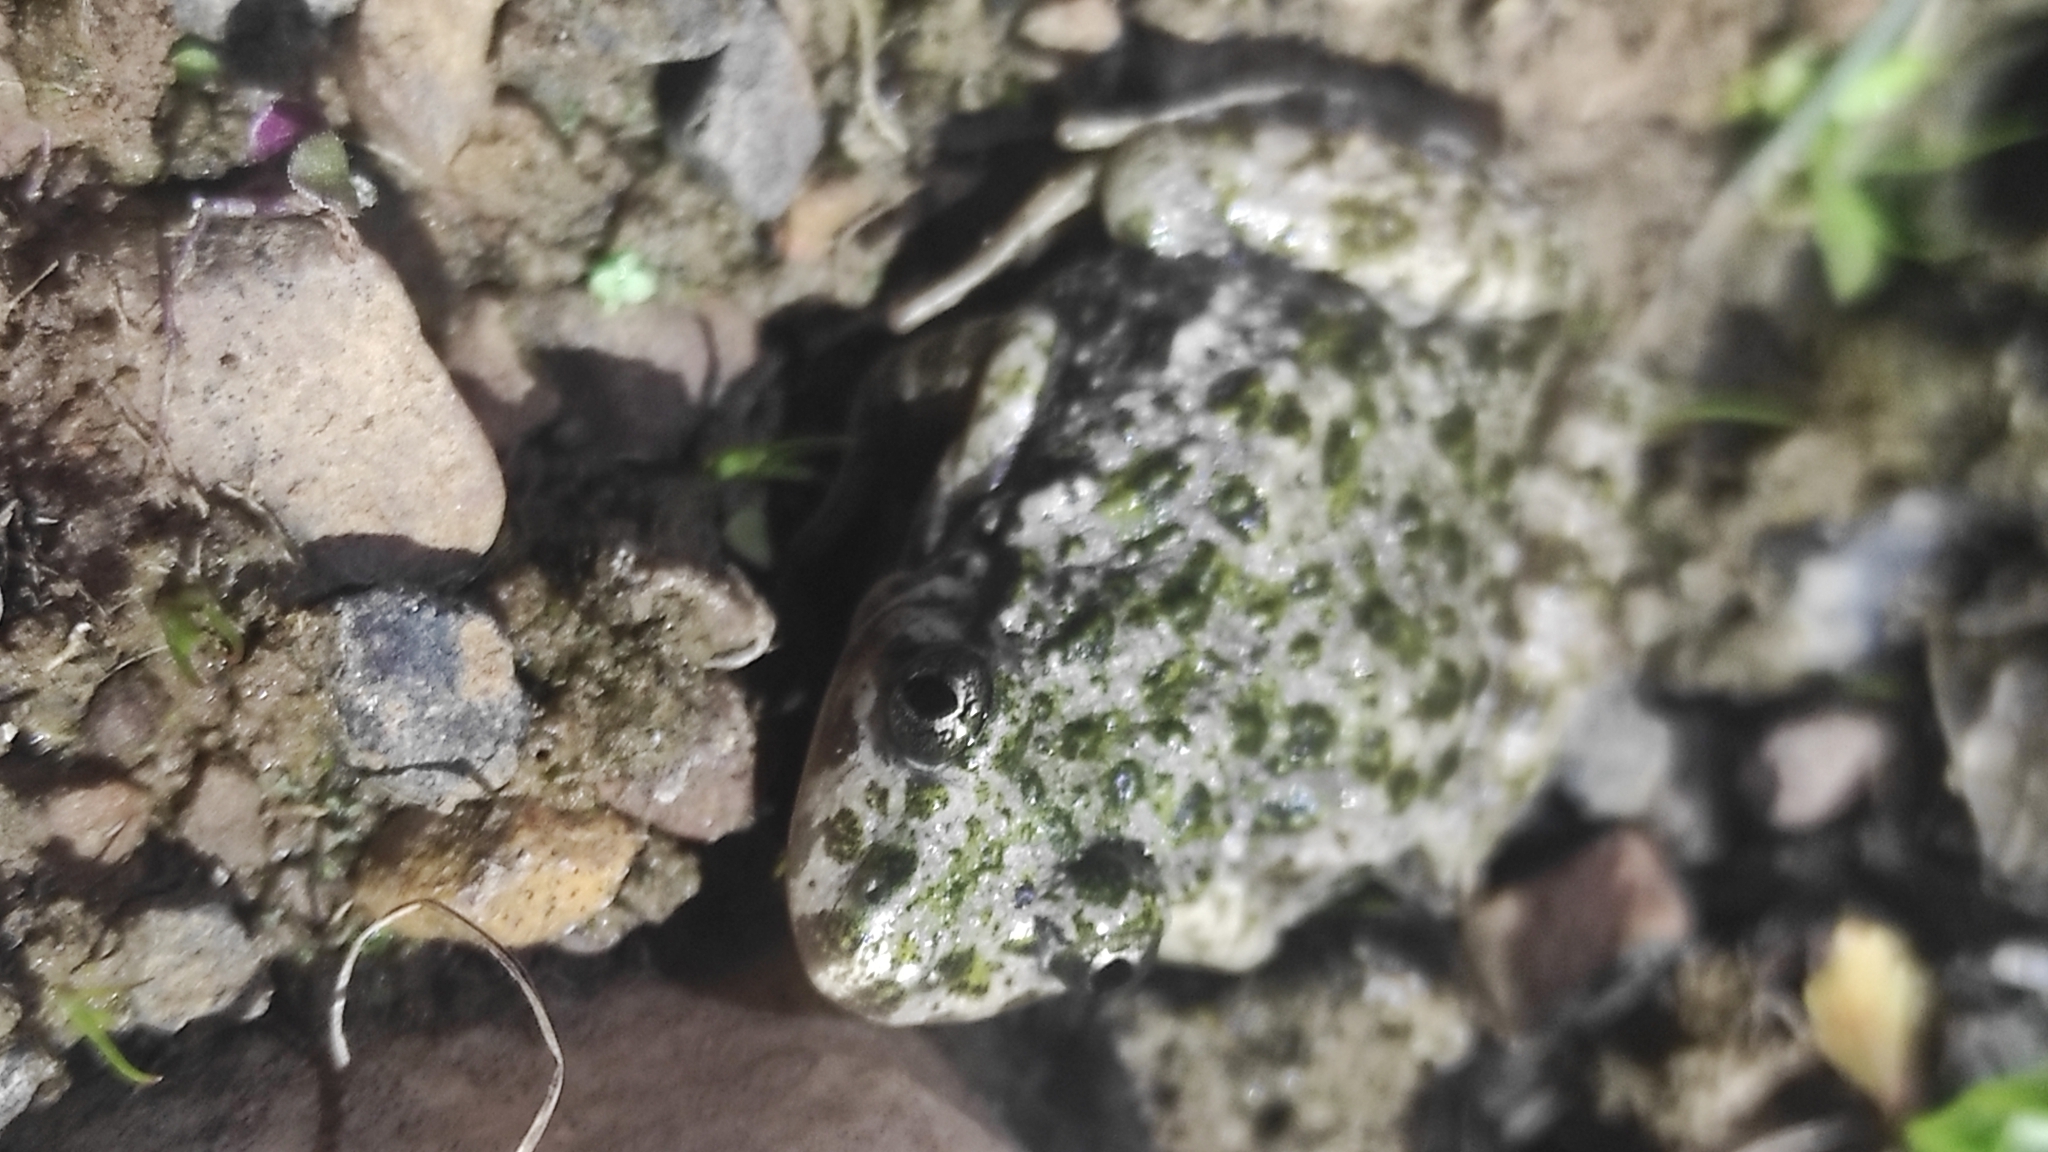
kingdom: Animalia
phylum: Chordata
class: Amphibia
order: Anura
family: Pelodytidae
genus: Pelodytes
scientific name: Pelodytes hespericus
